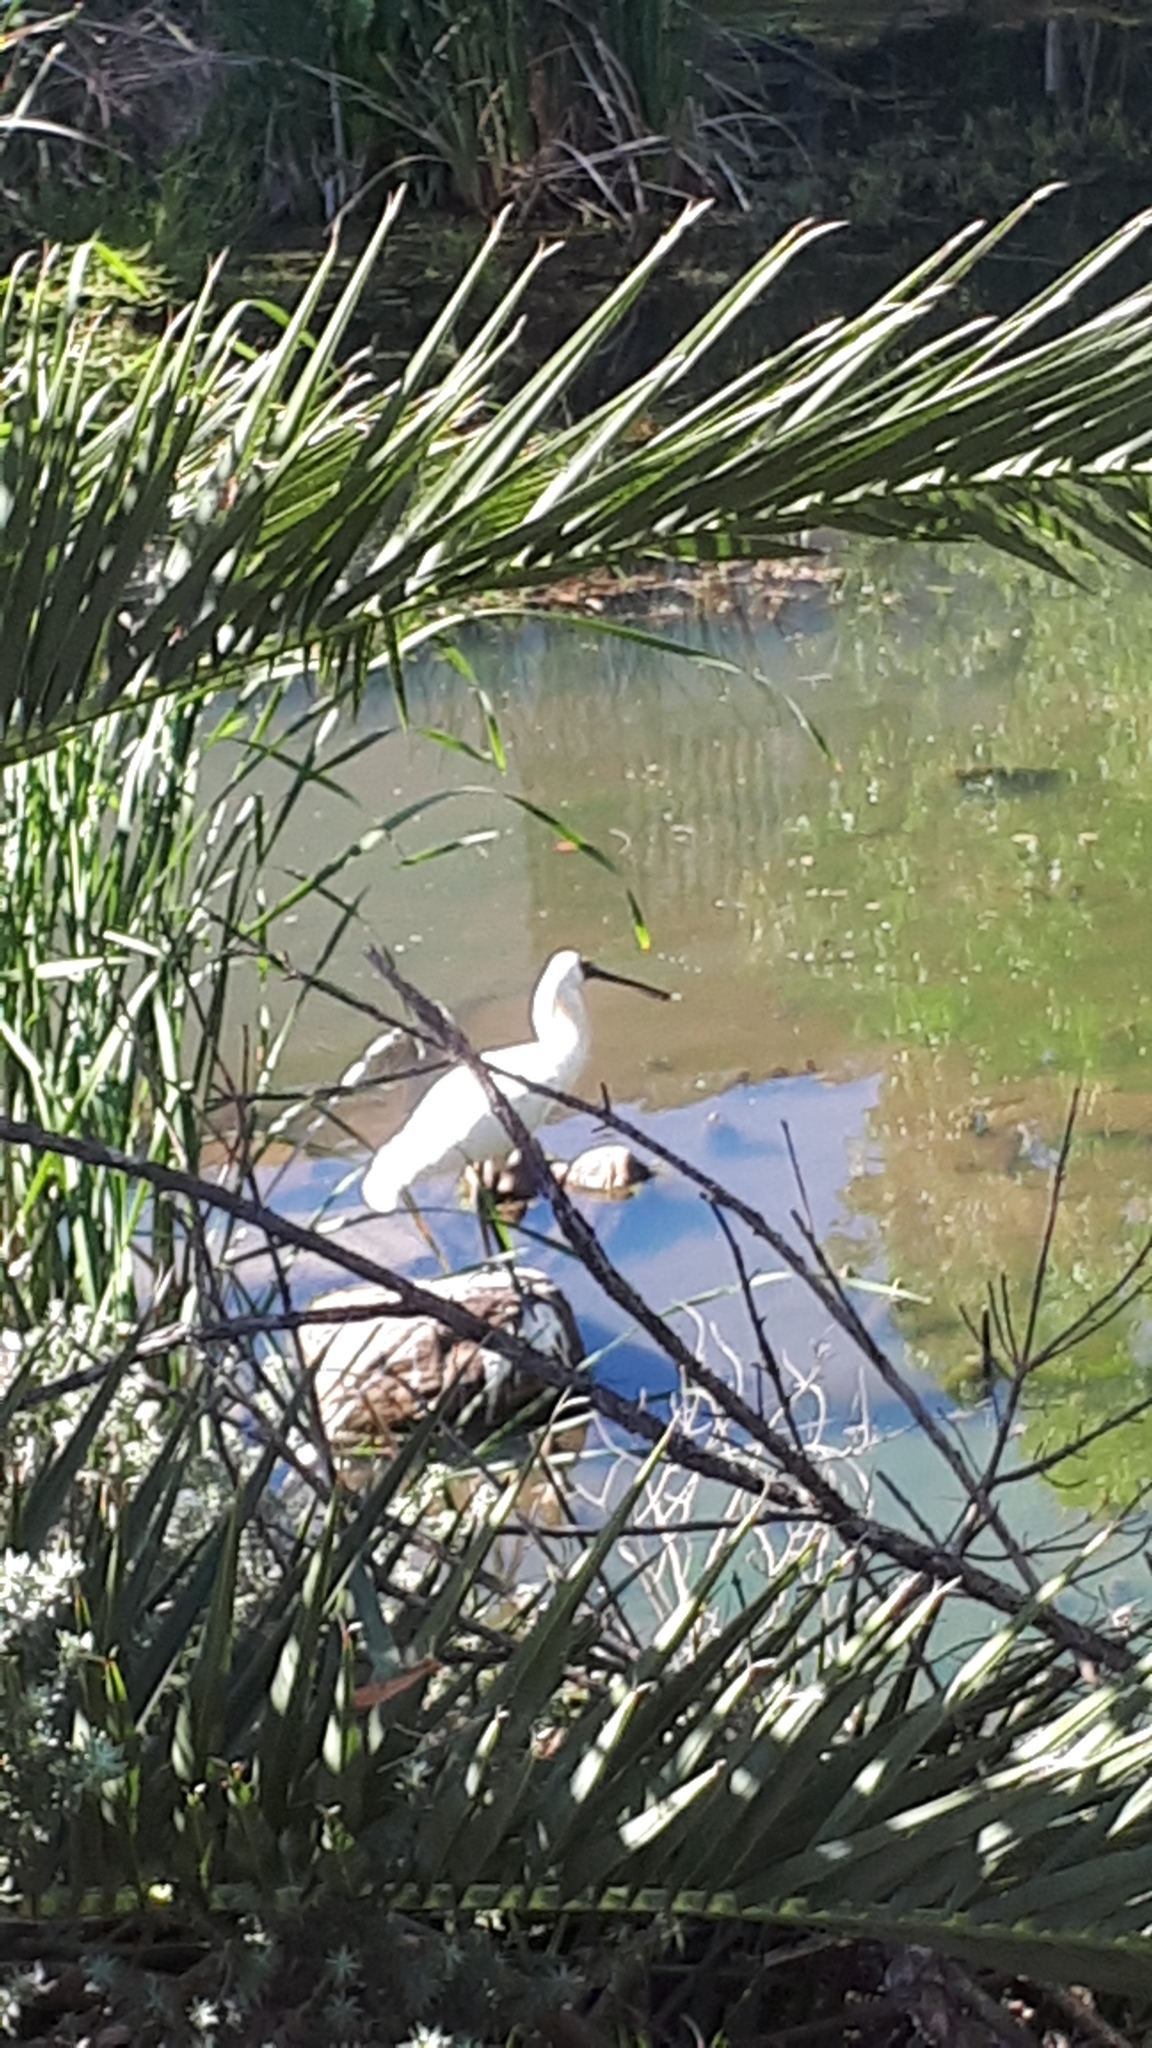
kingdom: Animalia
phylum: Chordata
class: Aves
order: Pelecaniformes
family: Threskiornithidae
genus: Platalea
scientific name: Platalea regia
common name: Royal spoonbill
